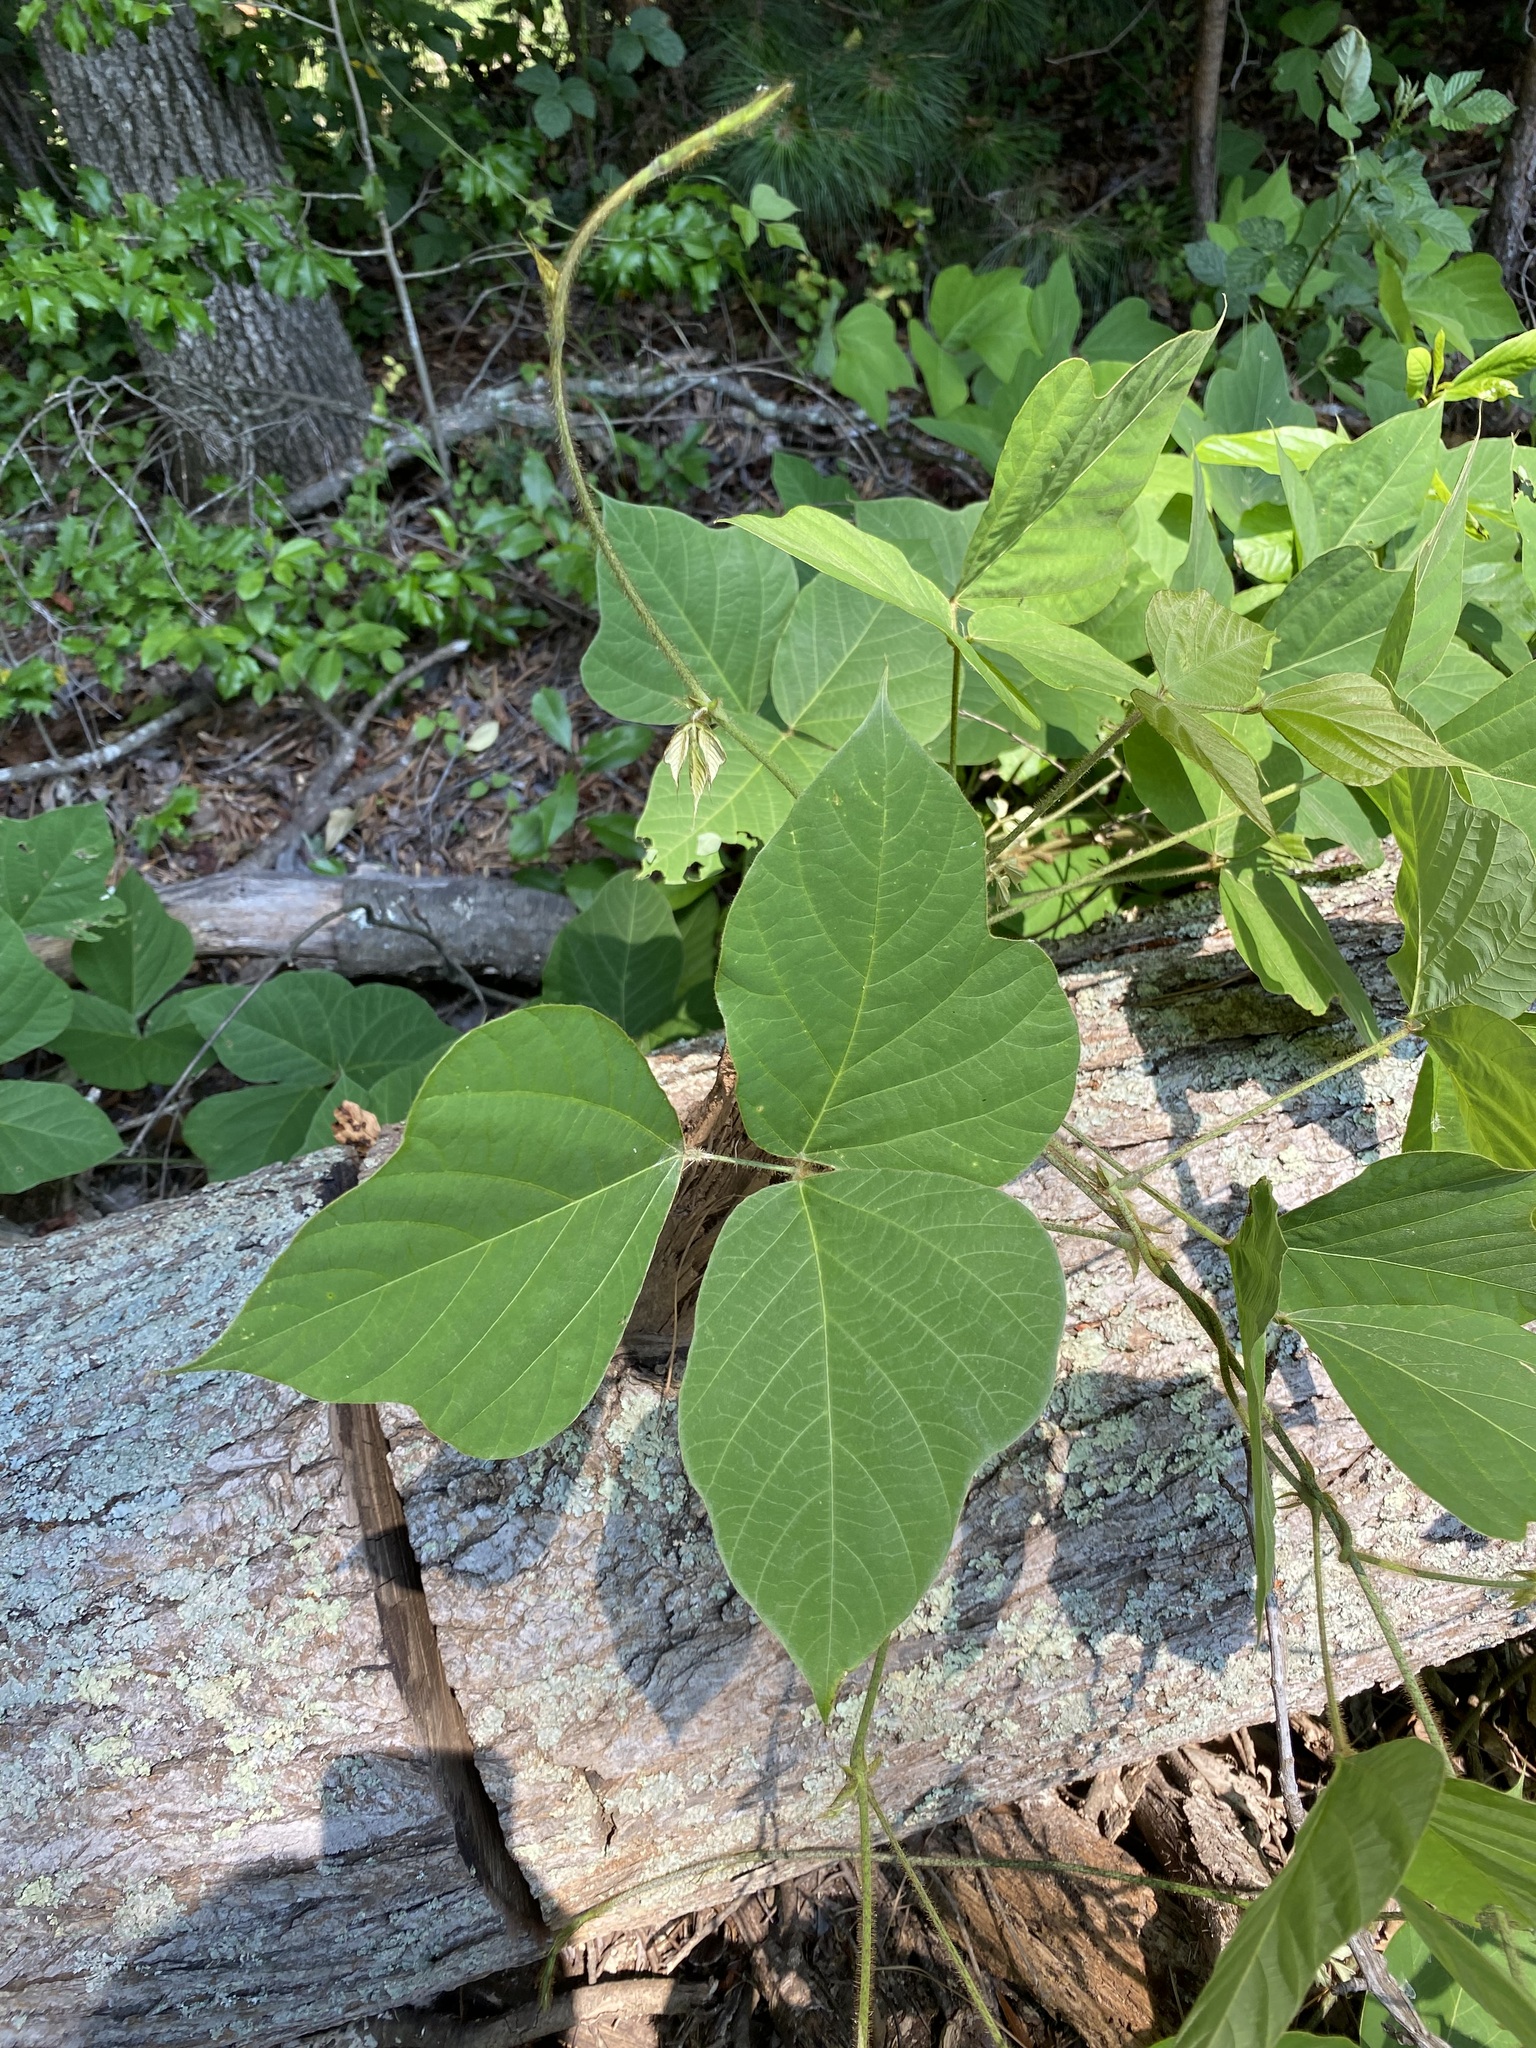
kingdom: Plantae
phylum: Tracheophyta
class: Magnoliopsida
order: Fabales
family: Fabaceae
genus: Pueraria
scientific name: Pueraria montana
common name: Kudzu
